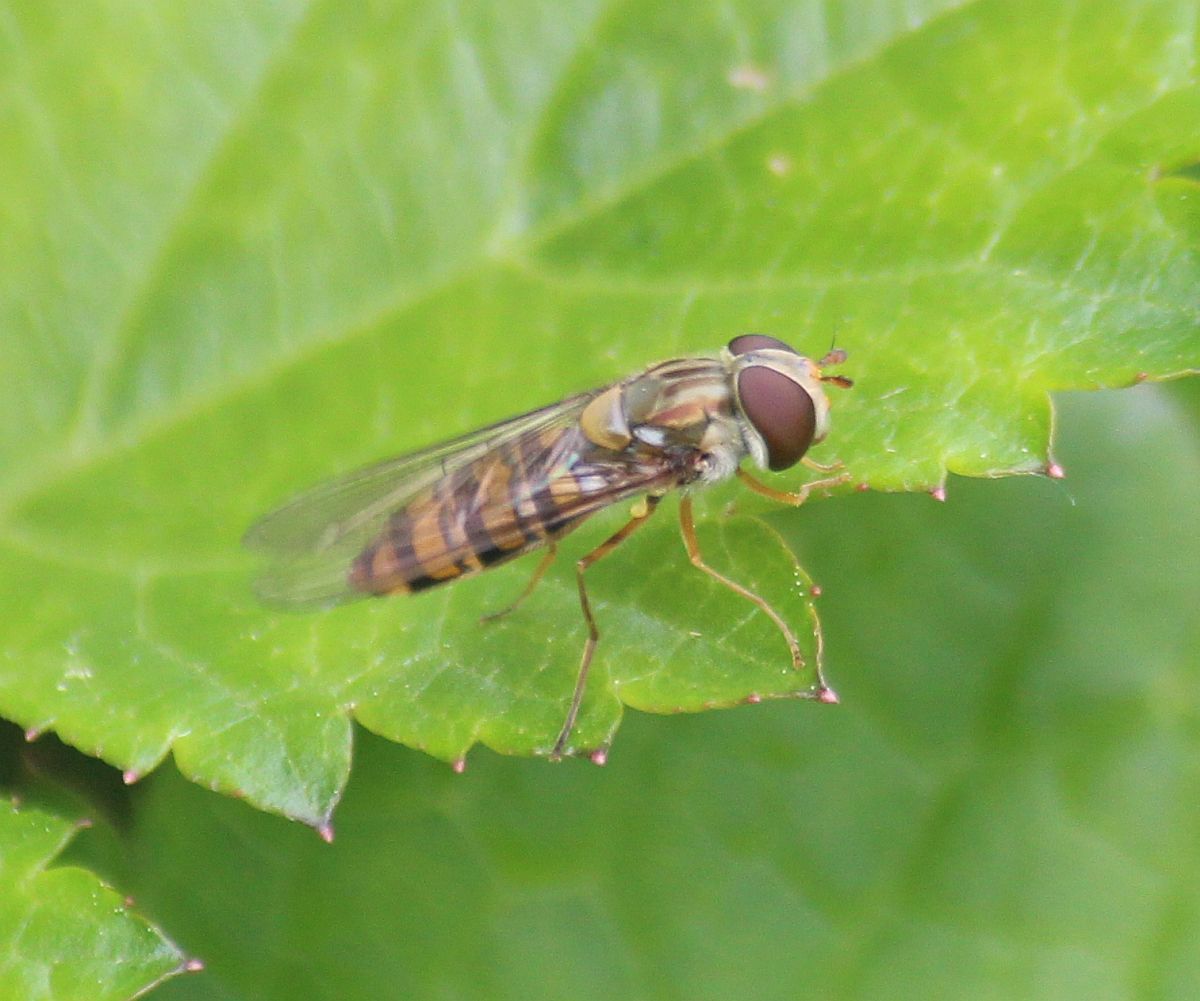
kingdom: Animalia
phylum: Arthropoda
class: Insecta
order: Diptera
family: Syrphidae
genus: Episyrphus
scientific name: Episyrphus balteatus
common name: Marmalade hoverfly
